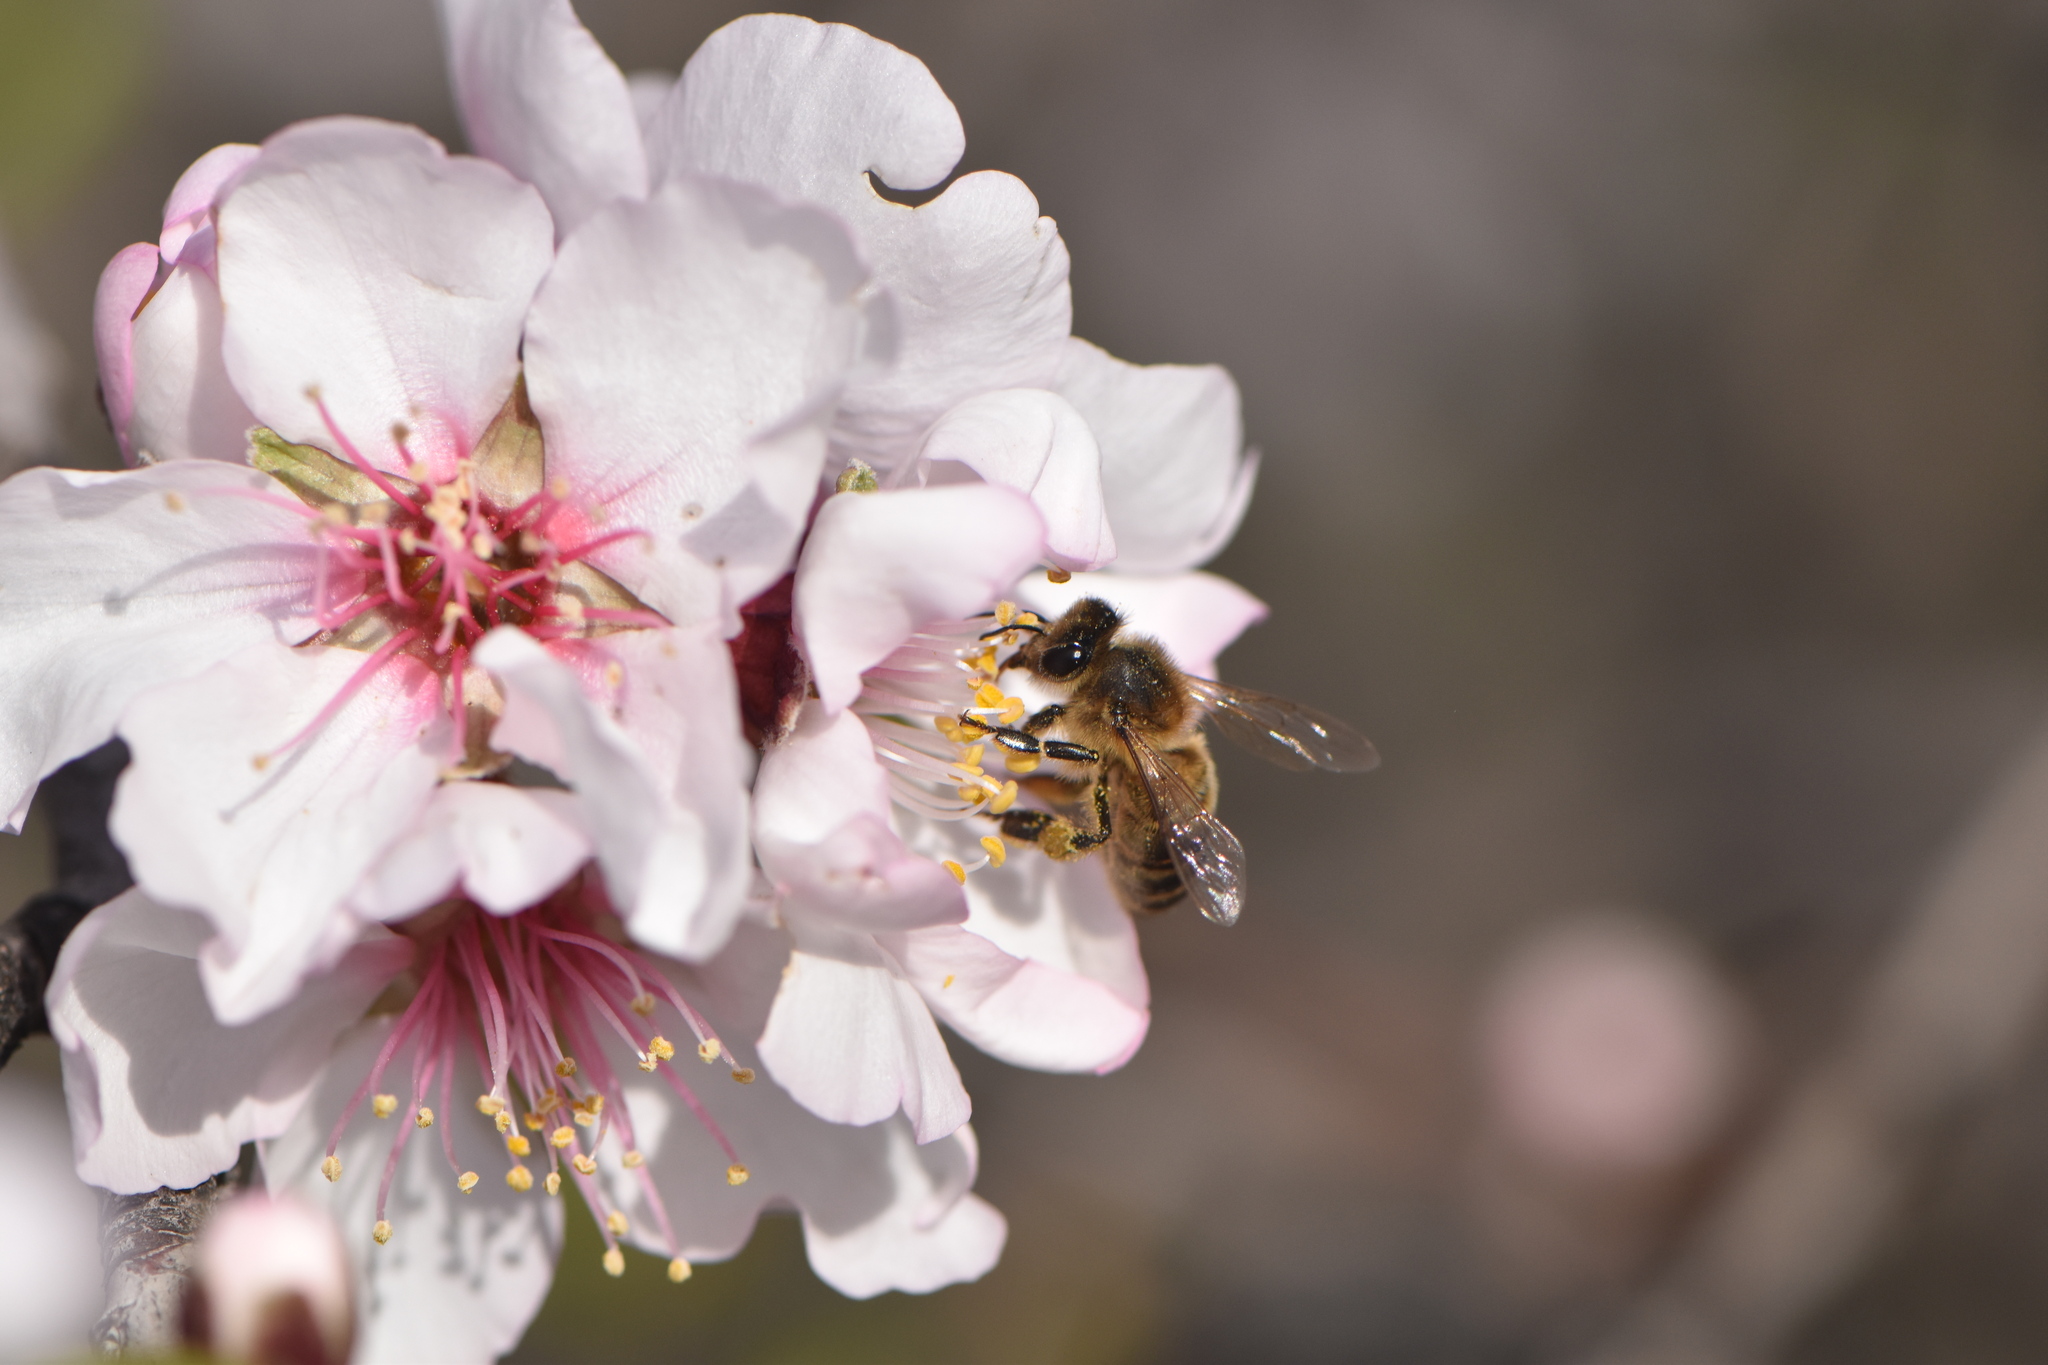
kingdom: Animalia
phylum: Arthropoda
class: Insecta
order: Hymenoptera
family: Apidae
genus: Apis
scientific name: Apis mellifera
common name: Honey bee
